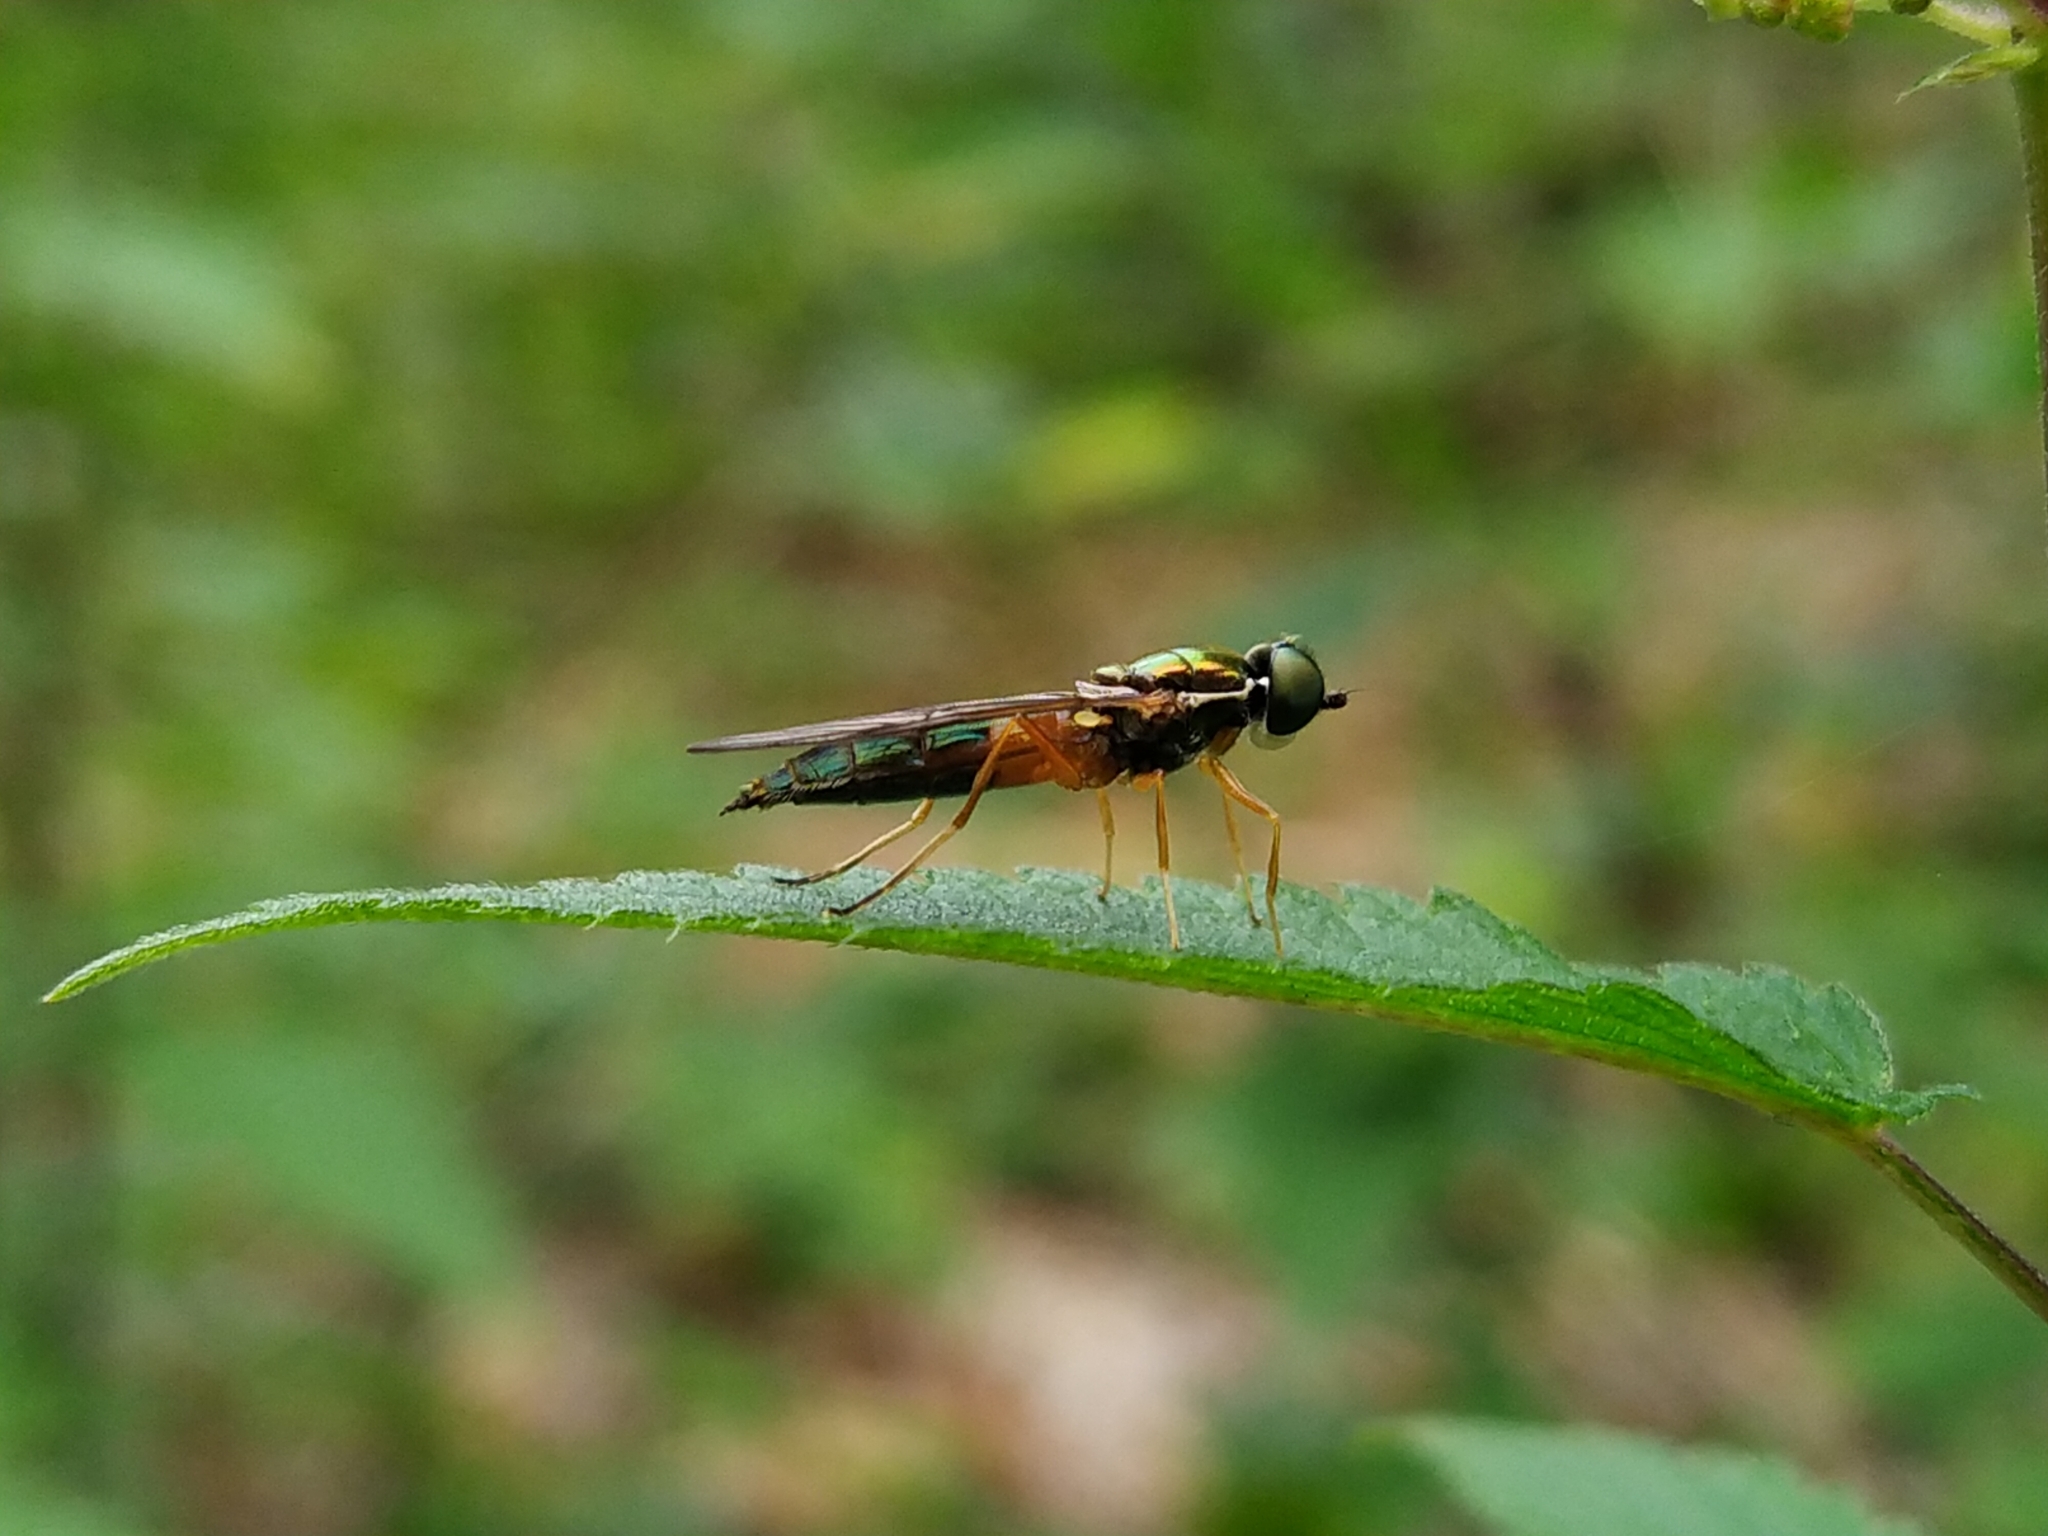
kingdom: Animalia
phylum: Arthropoda
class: Insecta
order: Diptera
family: Stratiomyidae
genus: Sargus
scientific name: Sargus bipunctatus
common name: Twin-spot centurion
